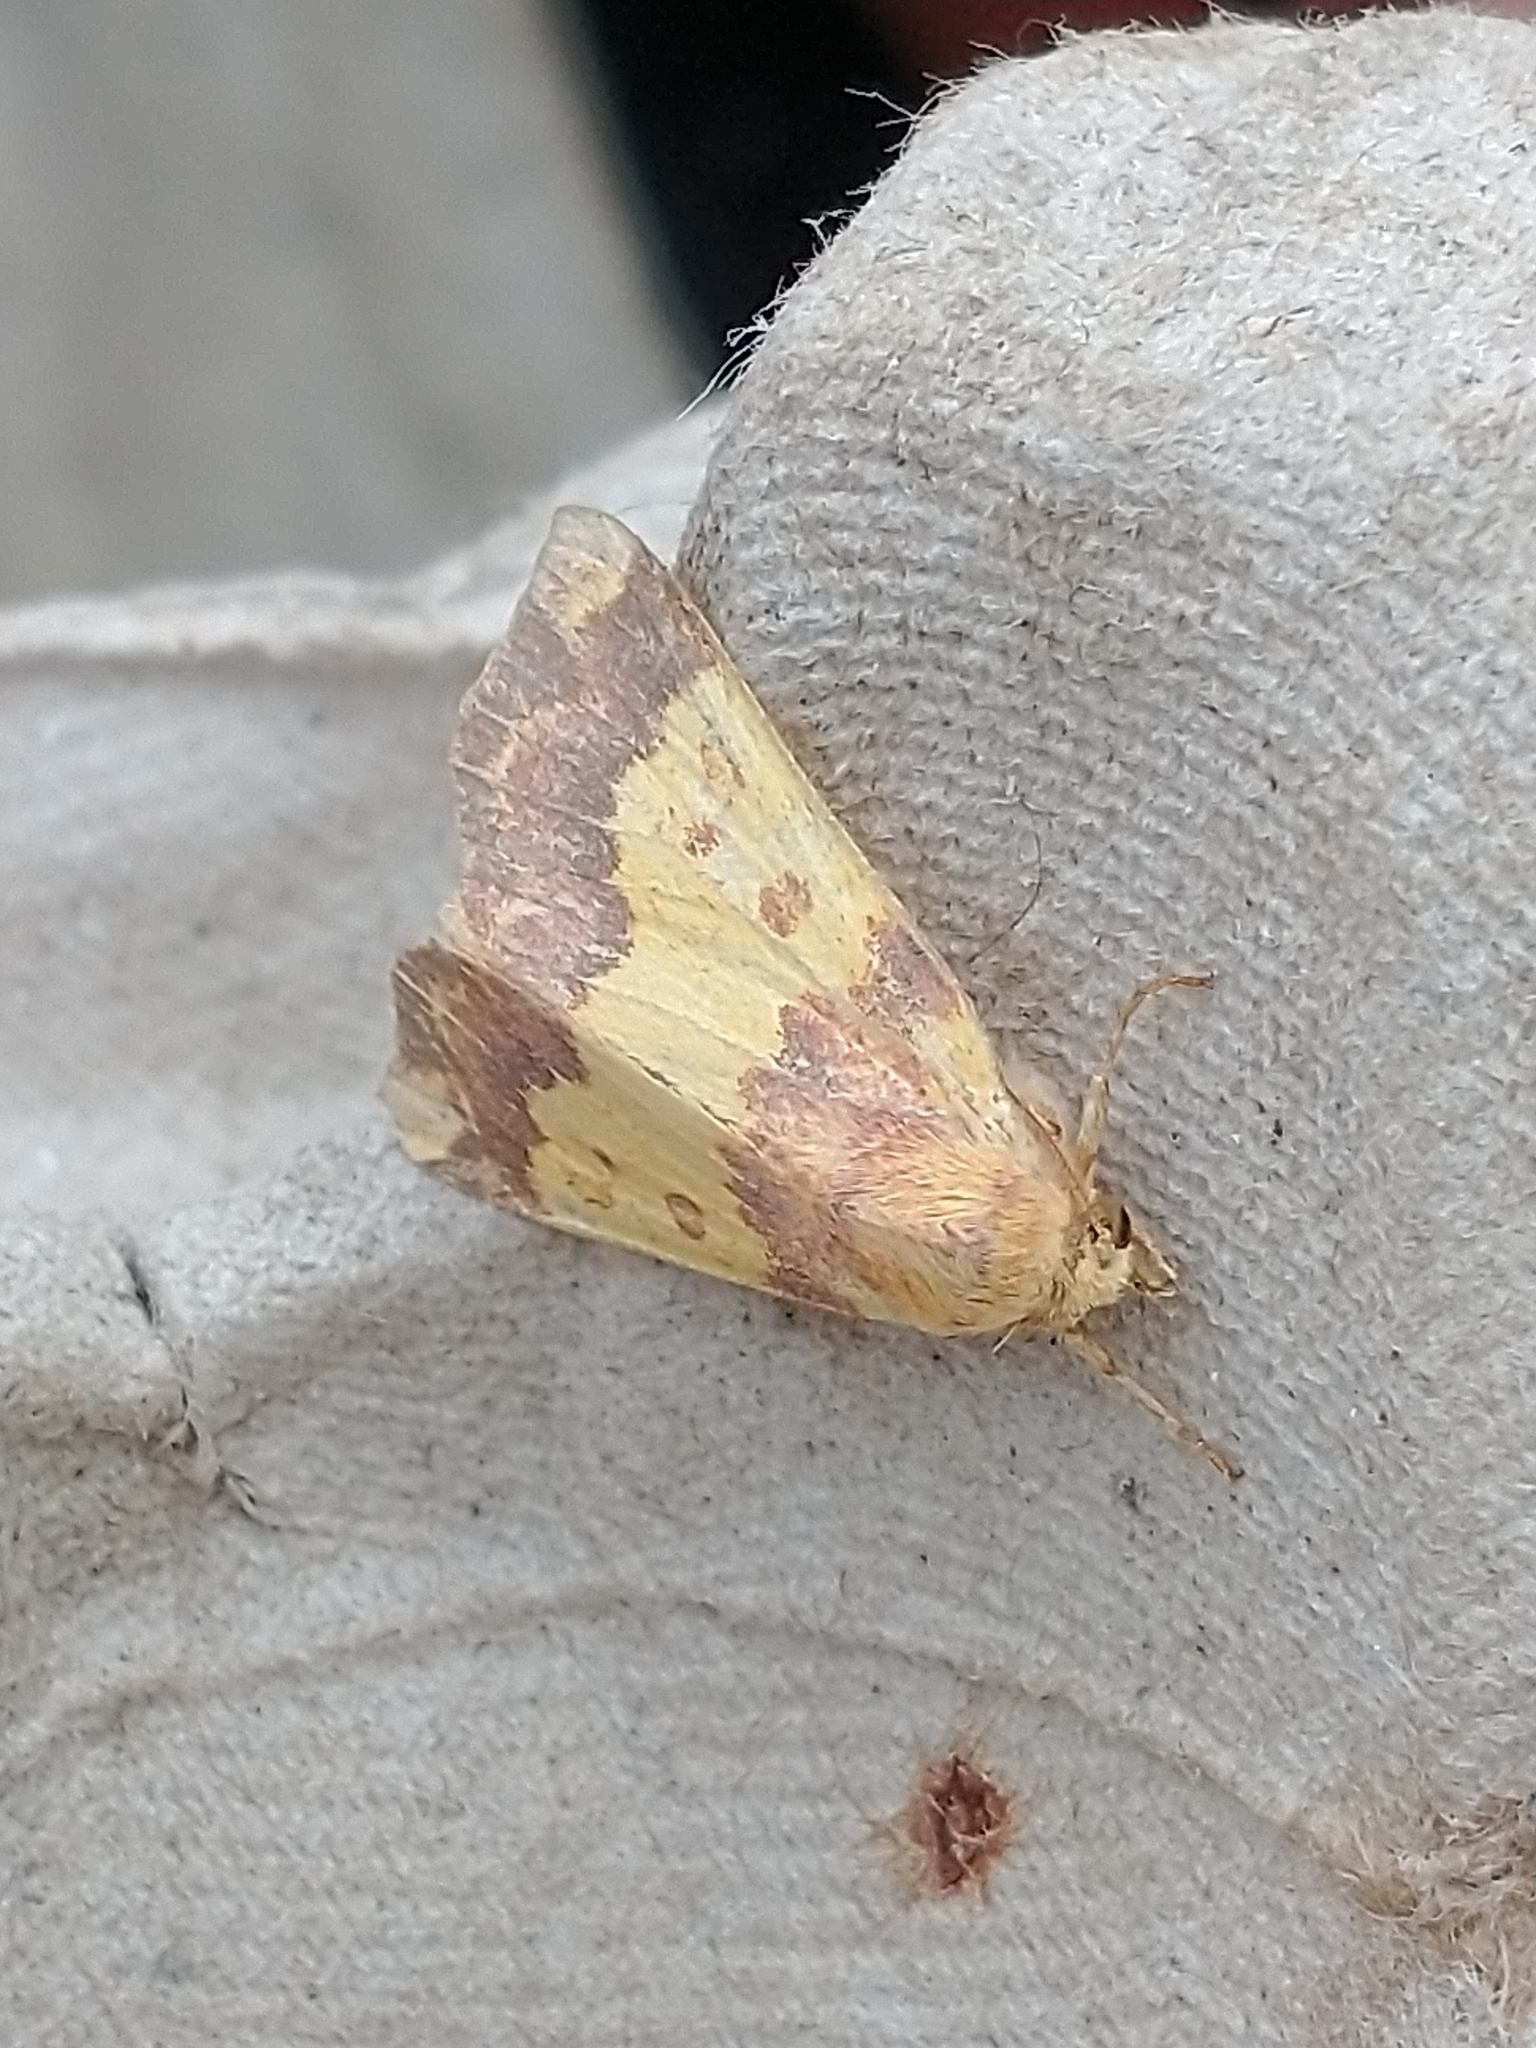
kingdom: Animalia
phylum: Arthropoda
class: Insecta
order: Lepidoptera
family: Noctuidae
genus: Tiliacea
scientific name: Tiliacea aurago
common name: Barred sallow
